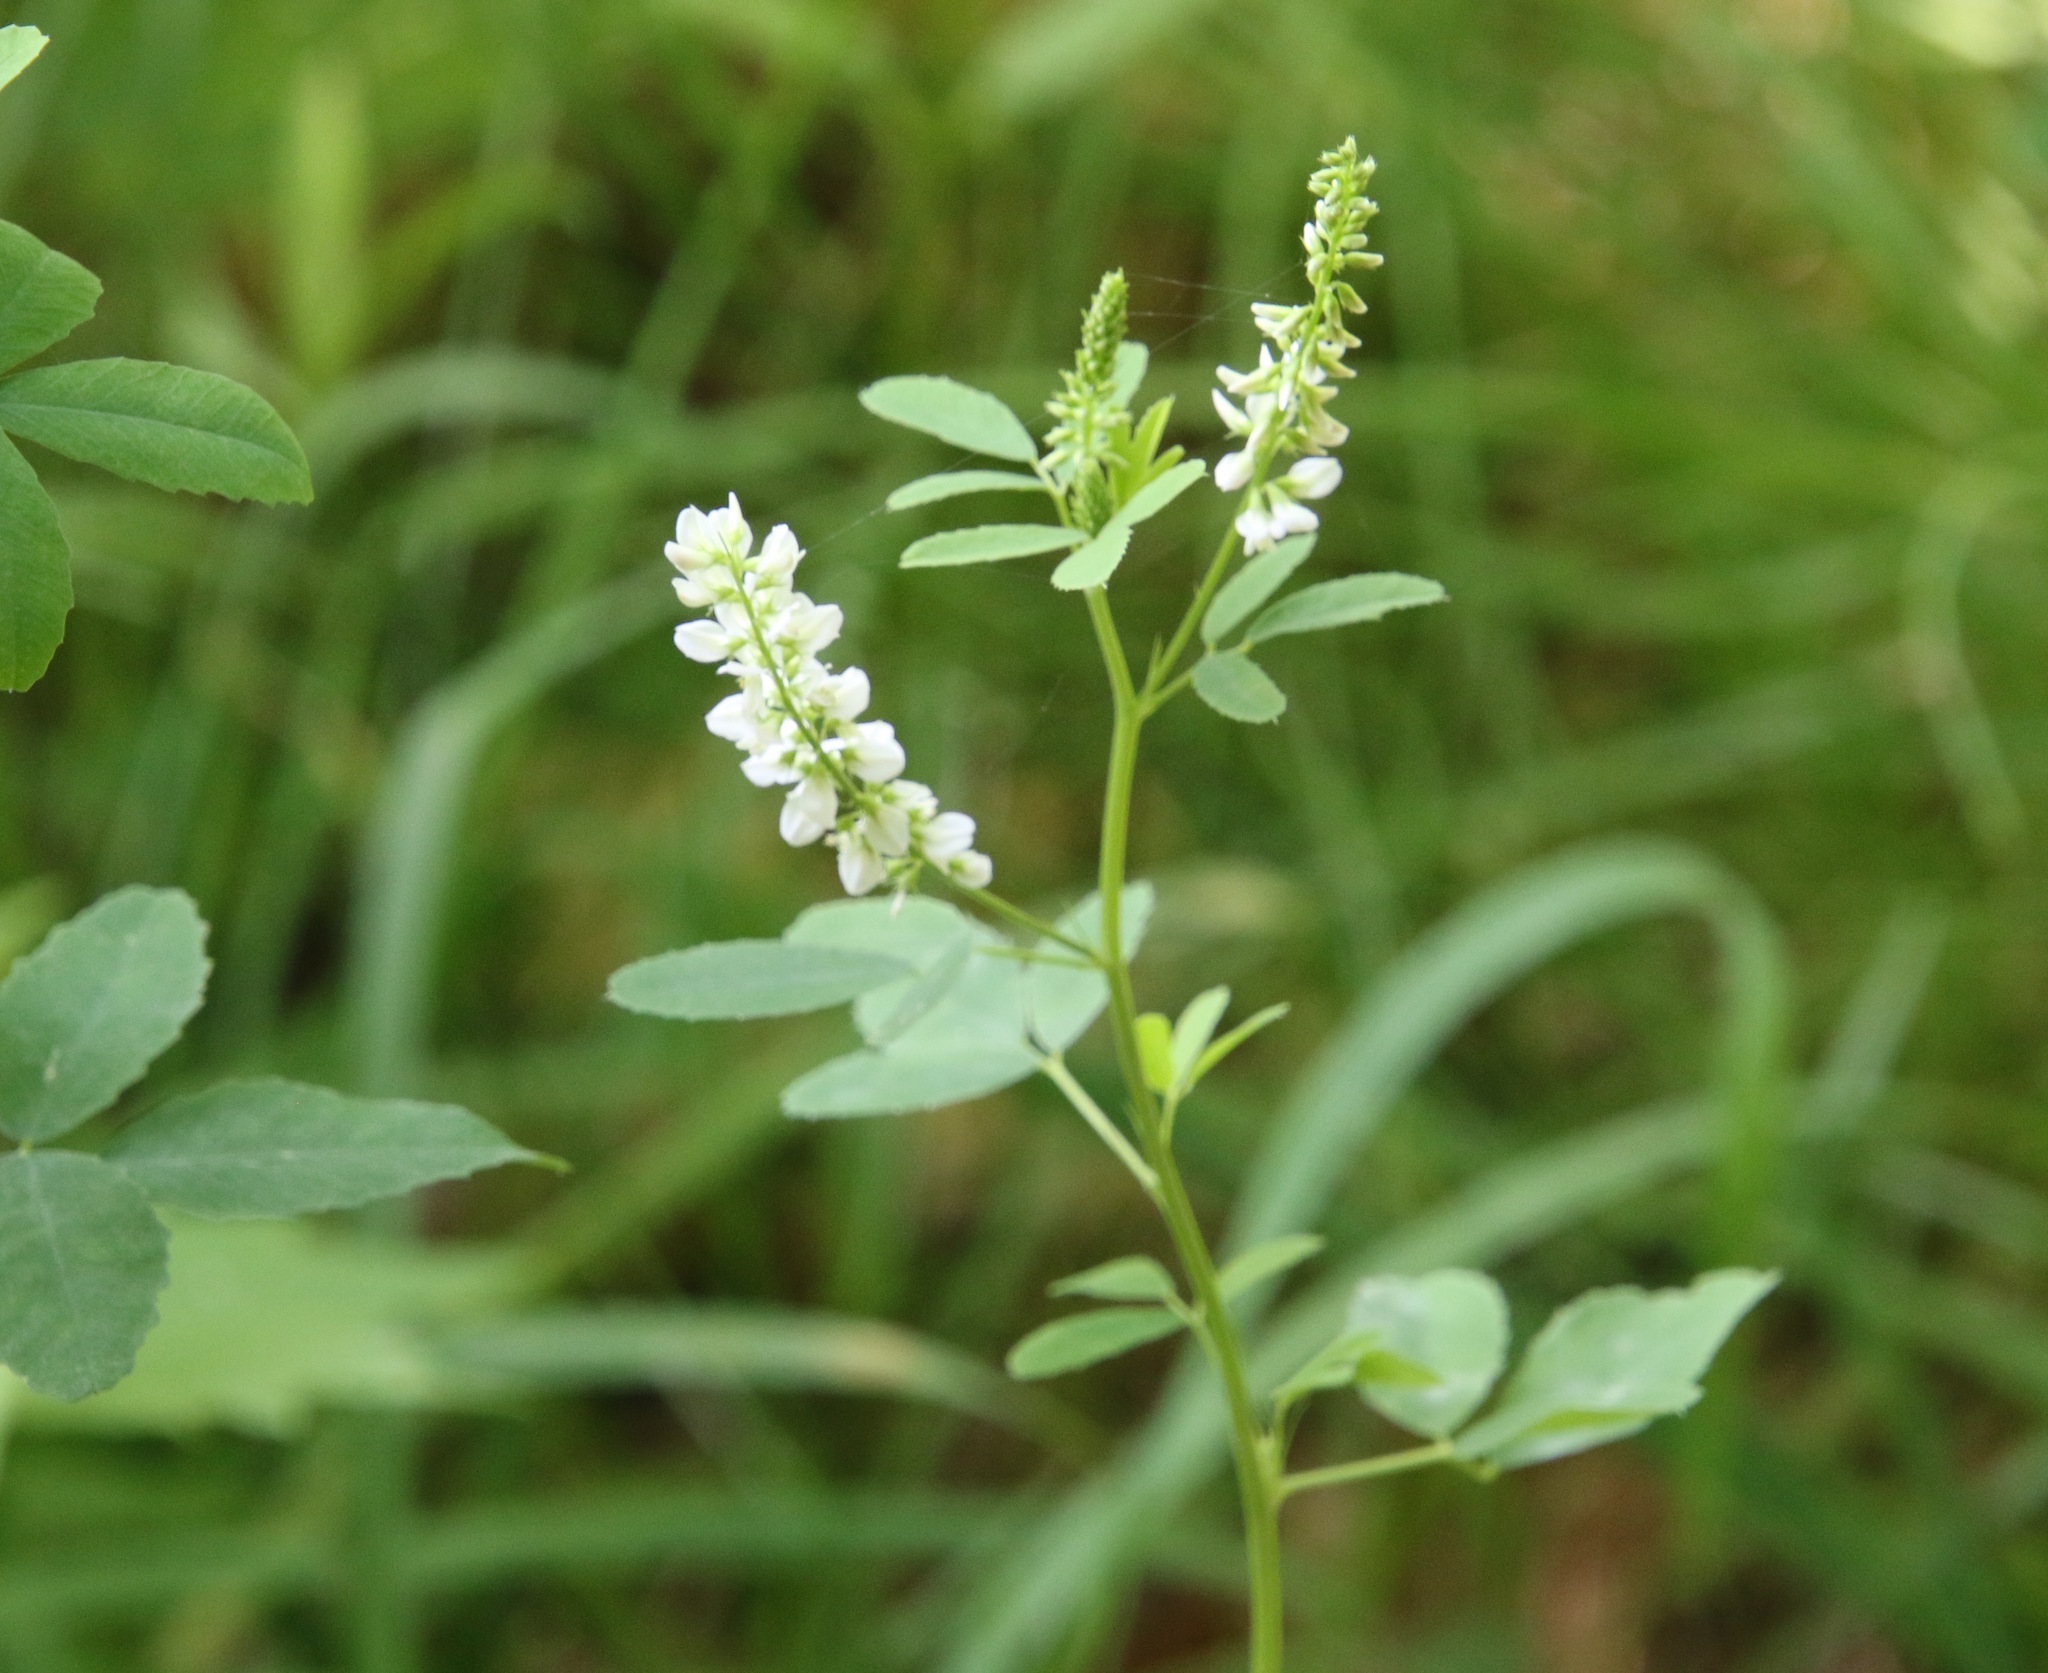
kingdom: Plantae
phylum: Tracheophyta
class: Magnoliopsida
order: Fabales
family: Fabaceae
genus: Melilotus
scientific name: Melilotus albus
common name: White melilot
